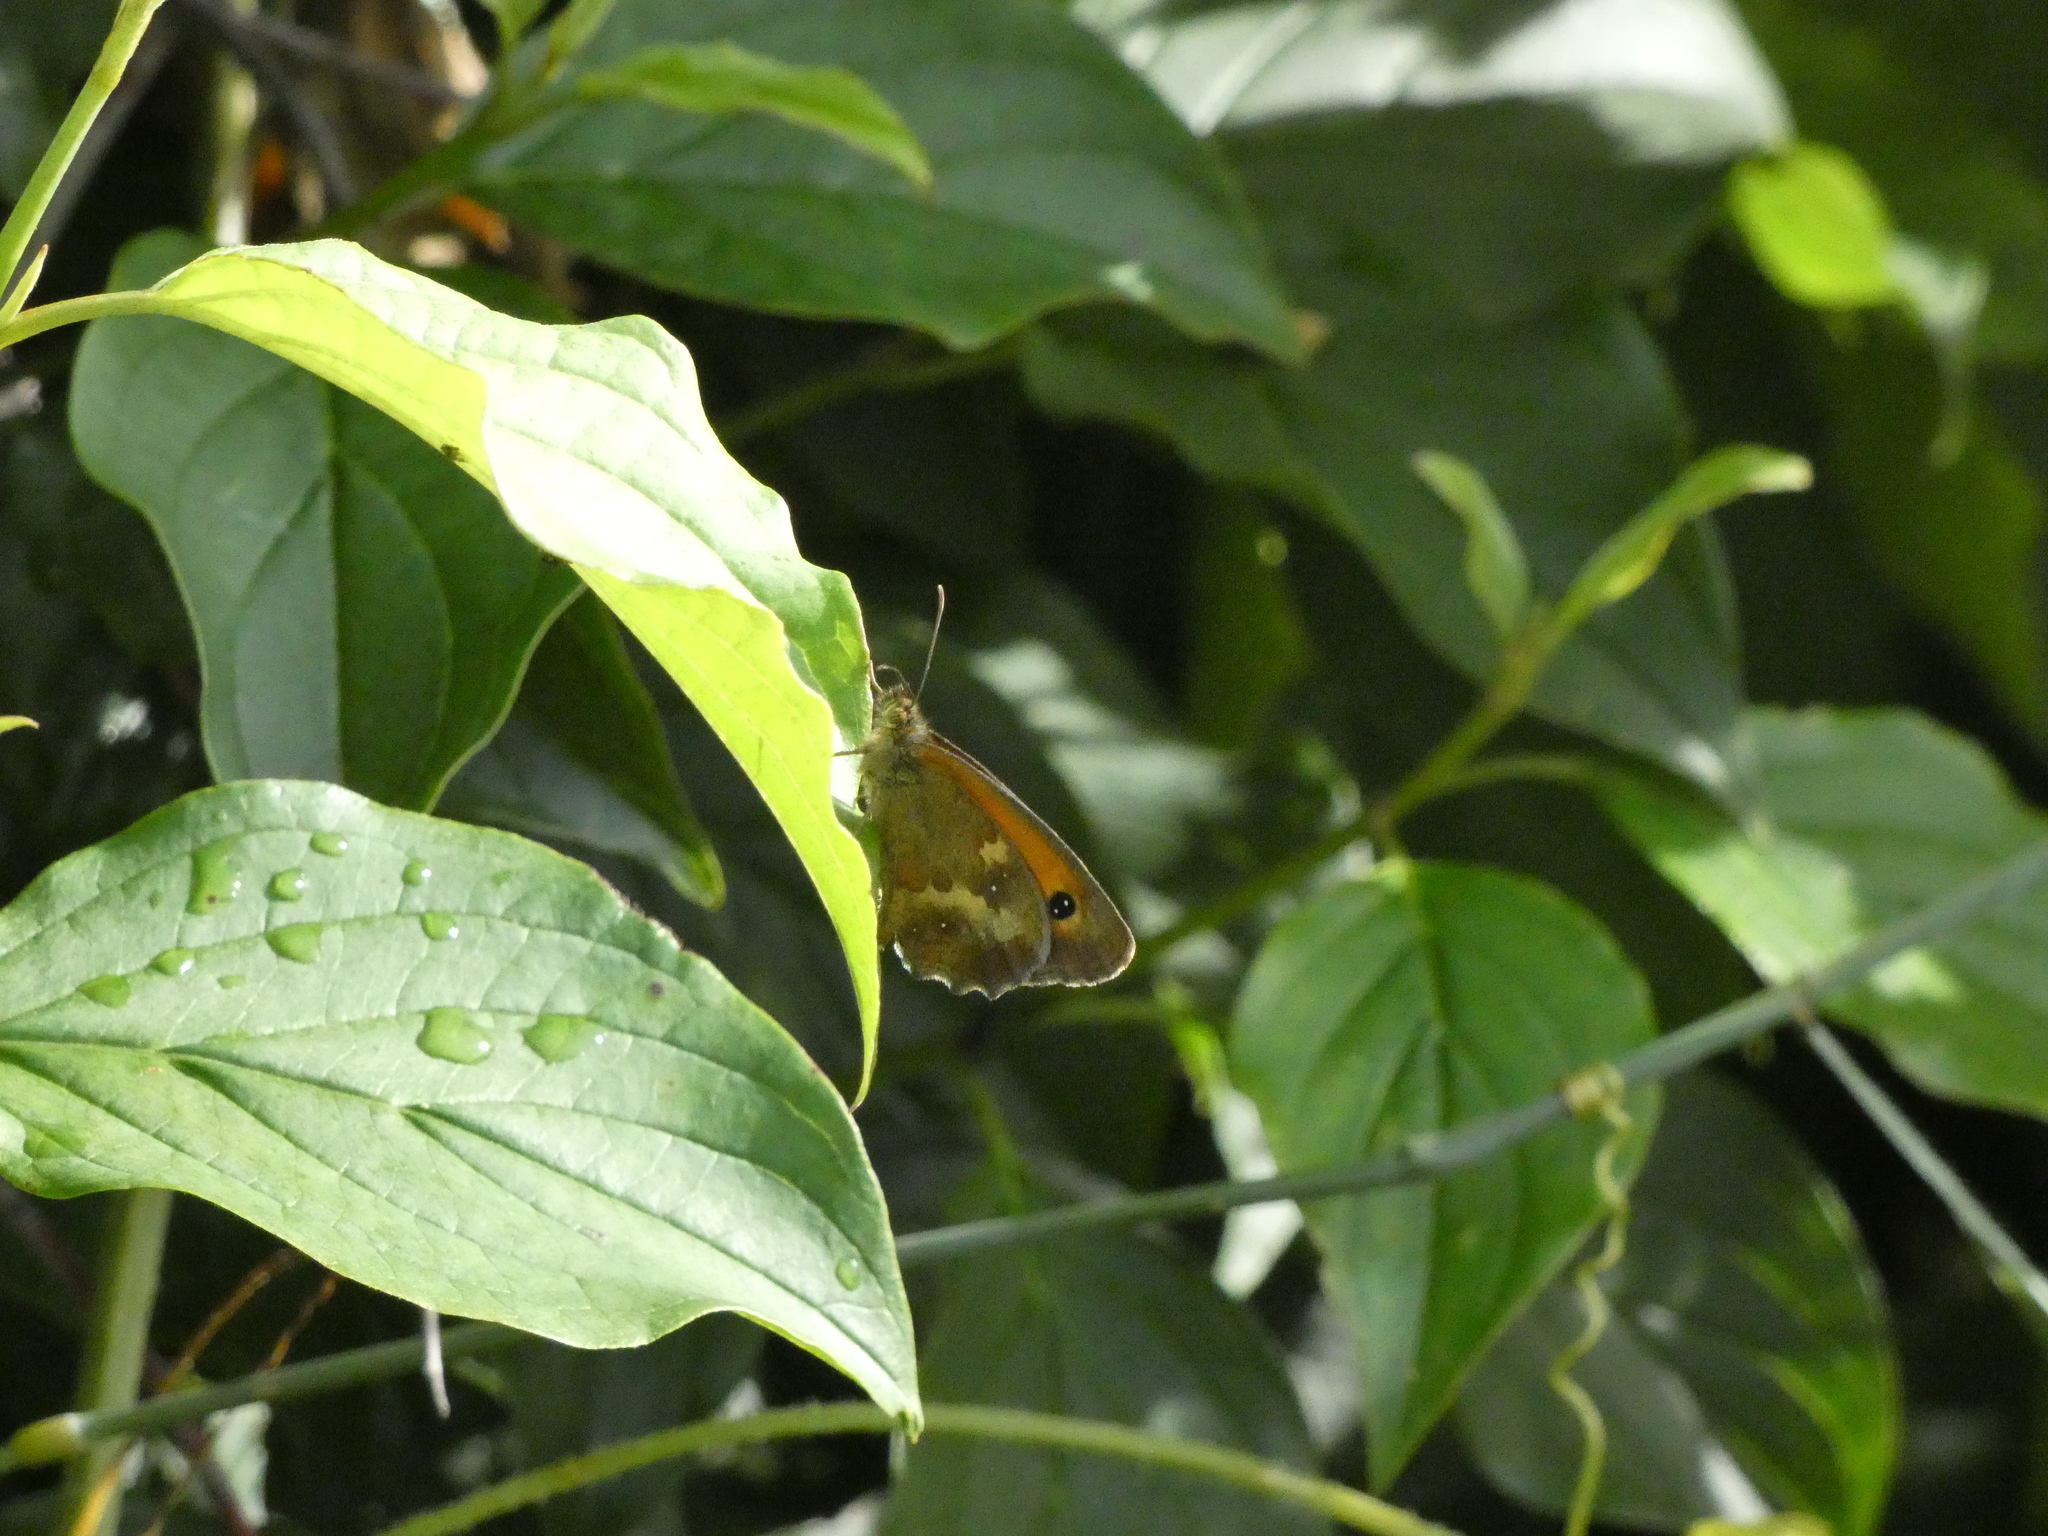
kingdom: Animalia
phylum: Arthropoda
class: Insecta
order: Lepidoptera
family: Nymphalidae
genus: Pyronia
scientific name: Pyronia tithonus
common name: Gatekeeper
